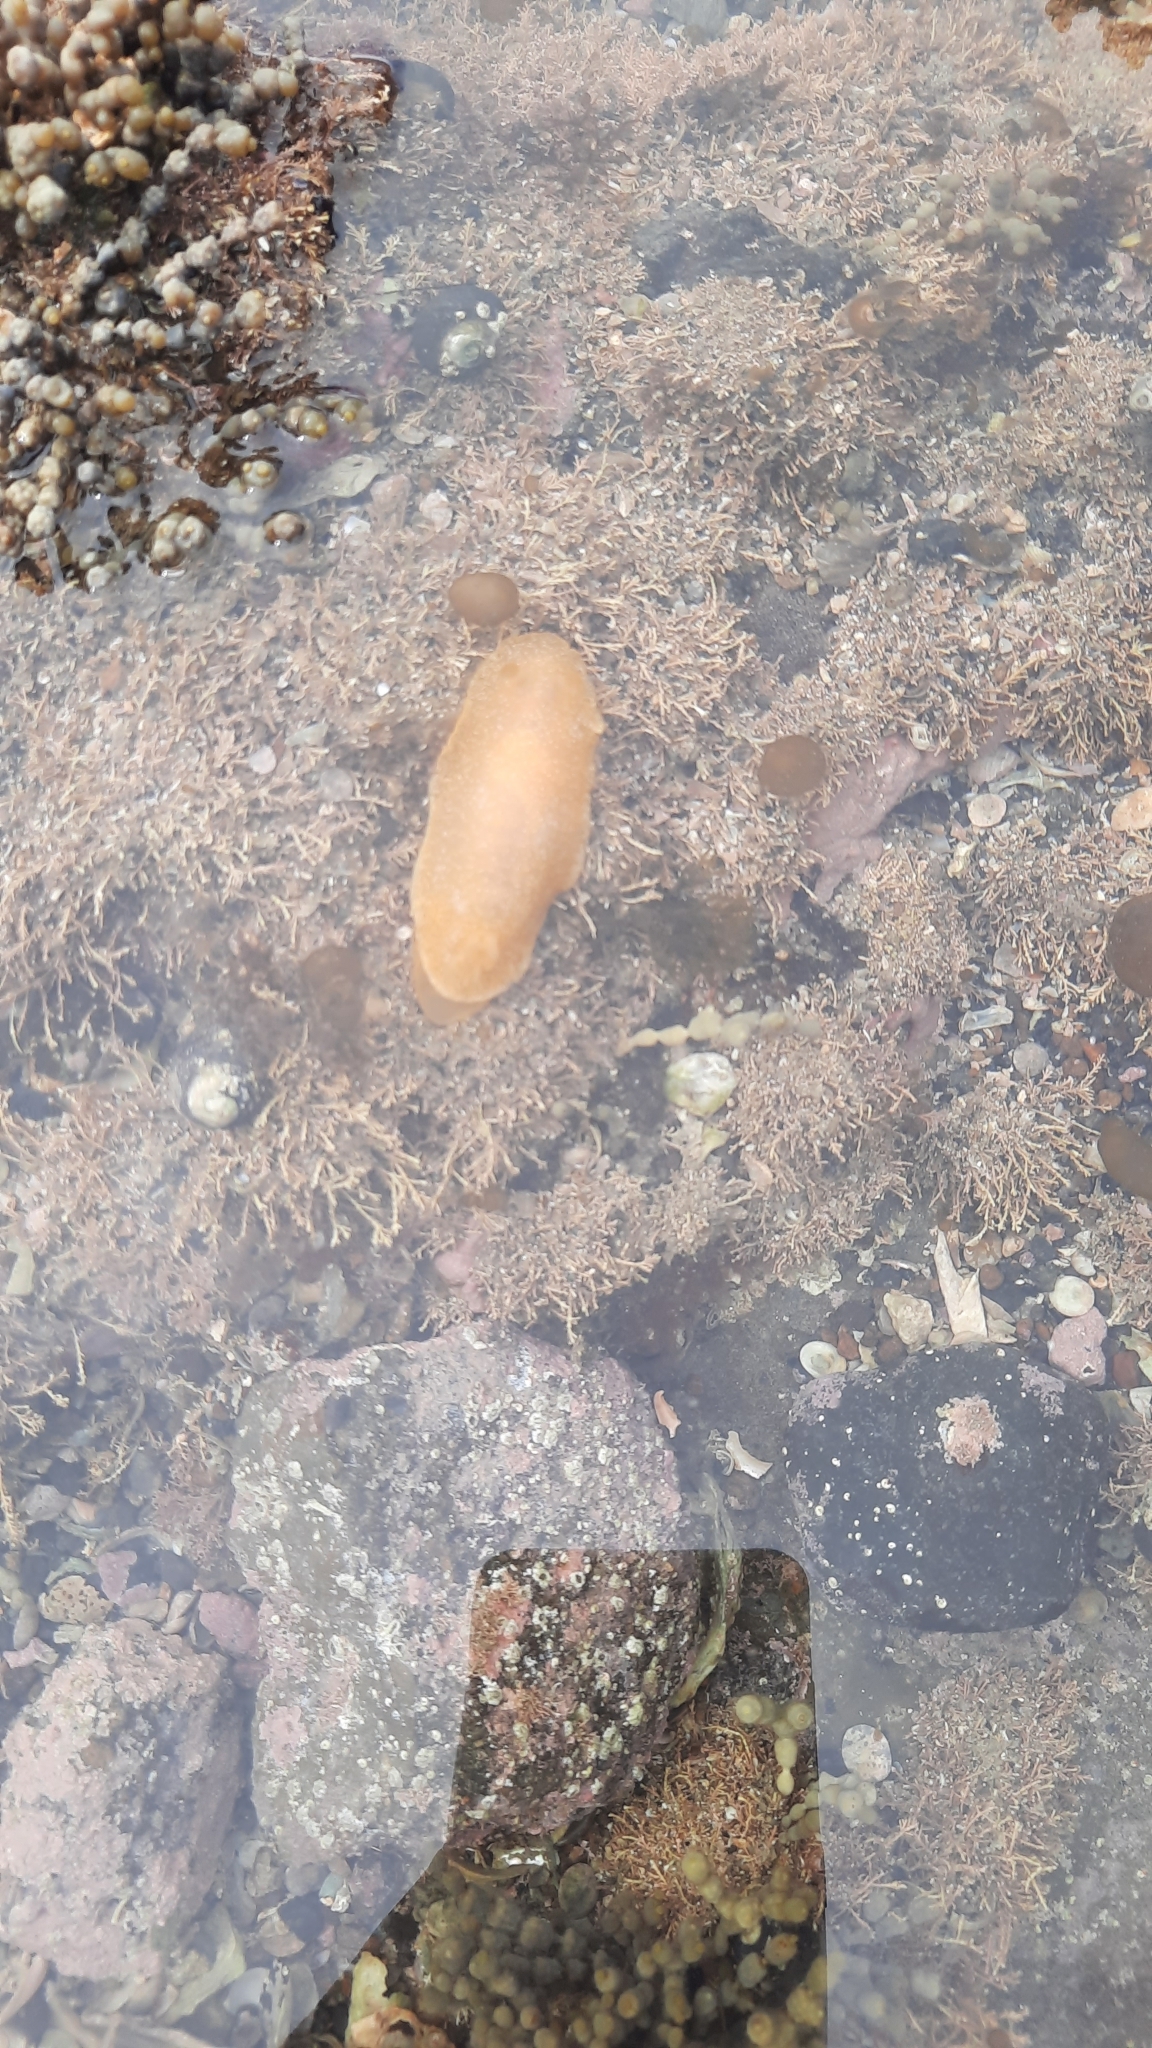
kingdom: Animalia
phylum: Mollusca
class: Gastropoda
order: Nudibranchia
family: Dendrodorididae
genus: Dendrodoris
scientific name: Dendrodoris citrina
